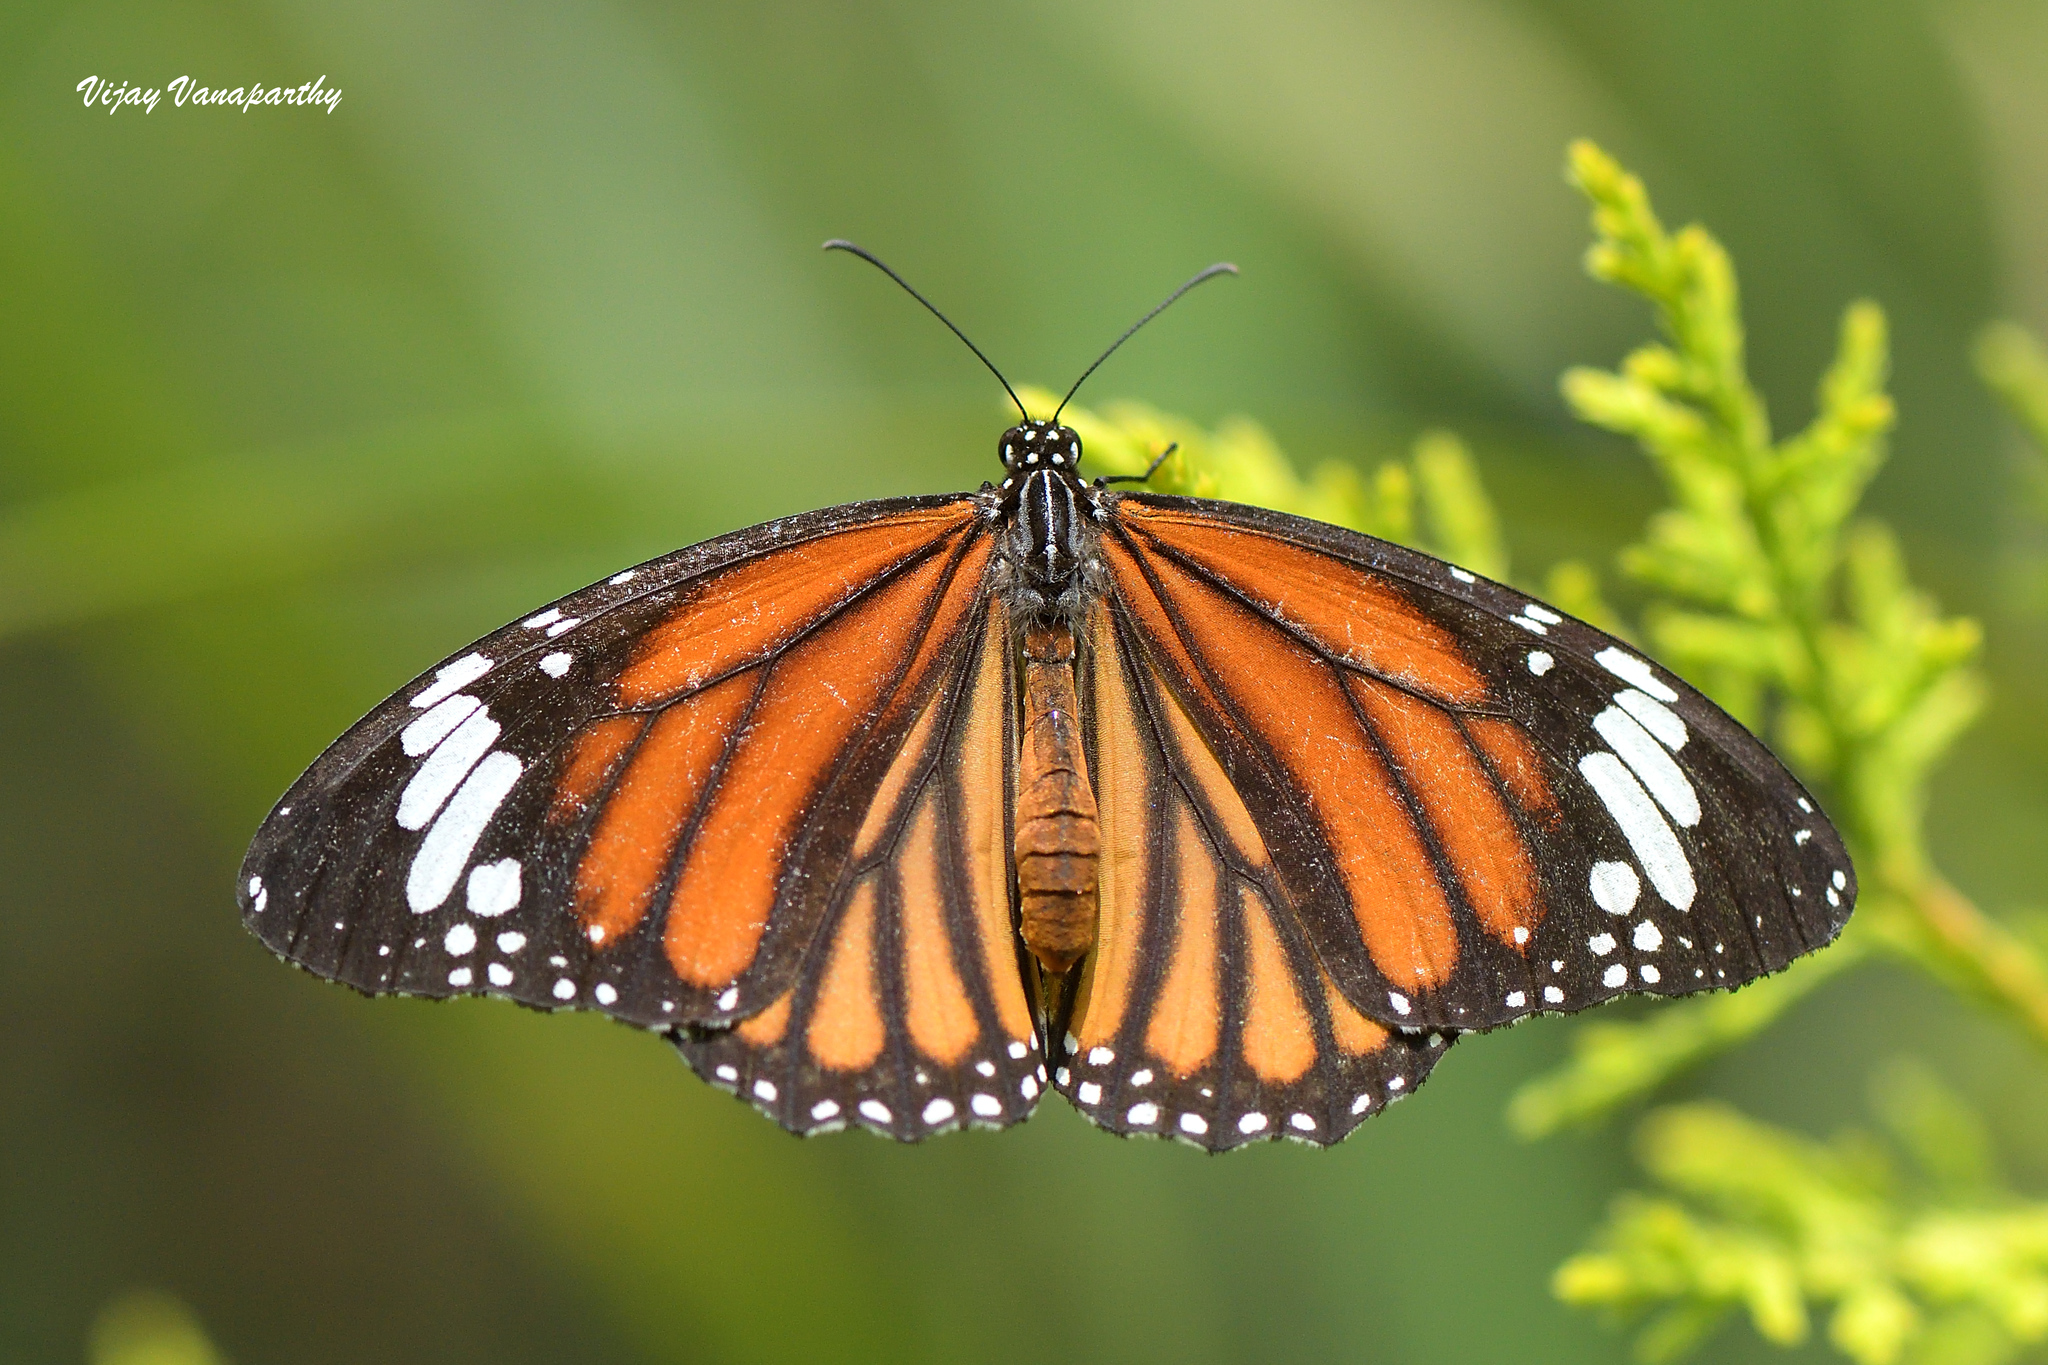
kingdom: Animalia
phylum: Arthropoda
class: Insecta
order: Lepidoptera
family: Nymphalidae
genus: Danaus
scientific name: Danaus genutia
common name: Common tiger butterfly
